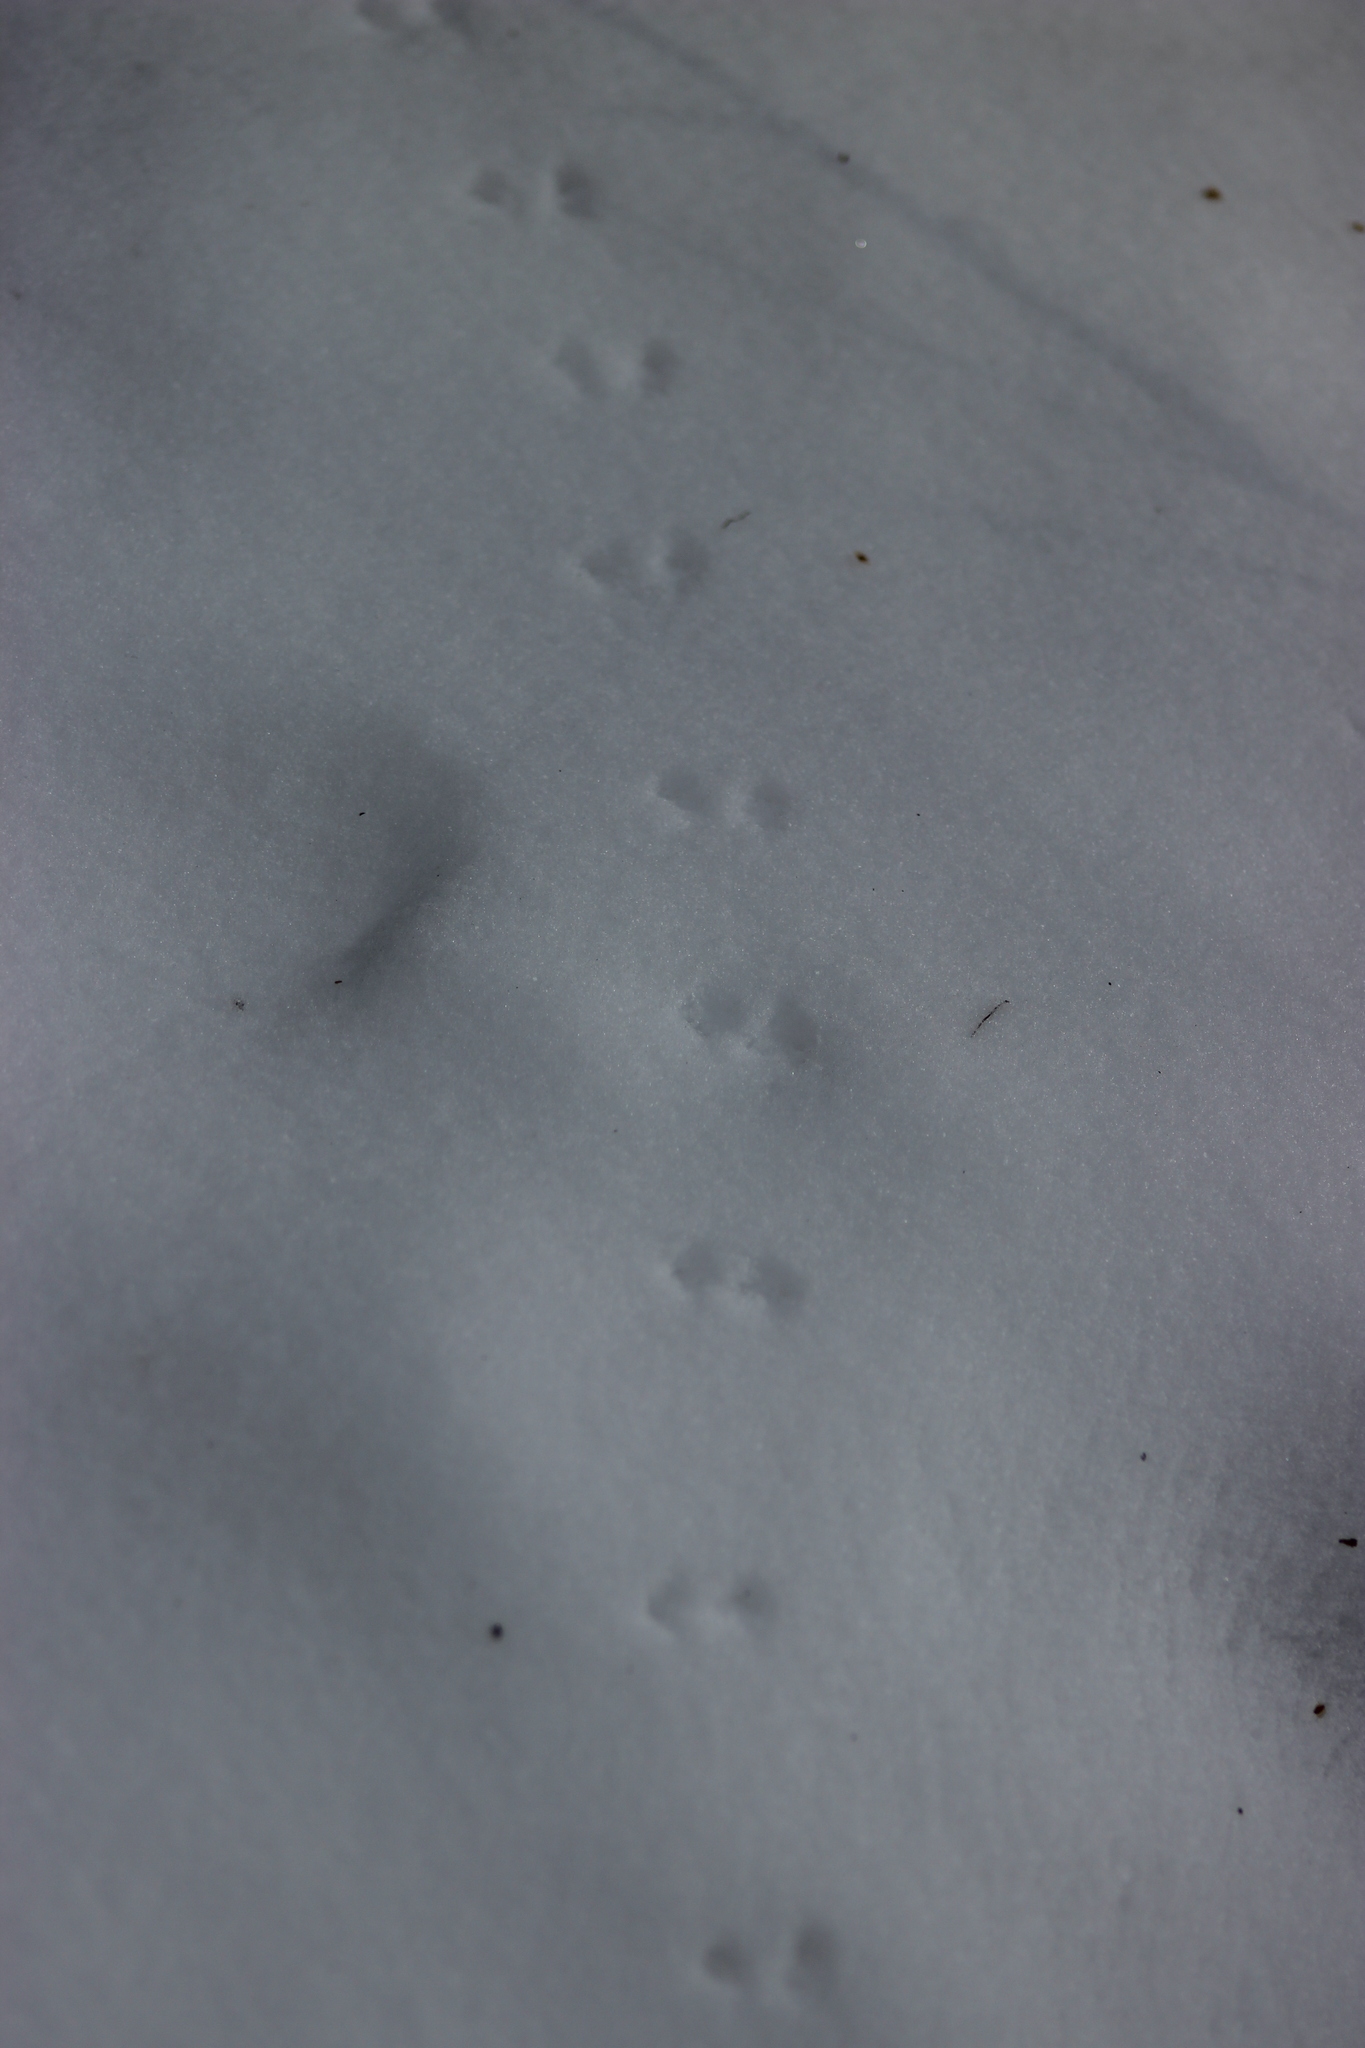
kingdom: Animalia
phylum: Chordata
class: Mammalia
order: Soricomorpha
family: Soricidae
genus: Sorex
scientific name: Sorex araneus
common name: Common shrew
